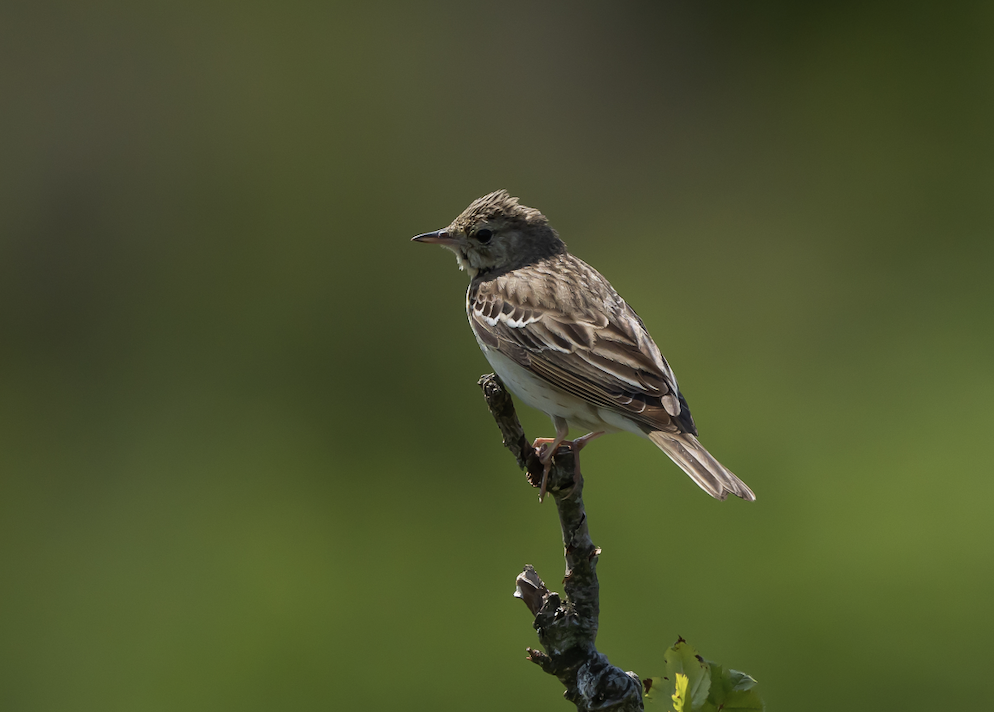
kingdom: Animalia
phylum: Chordata
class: Aves
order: Passeriformes
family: Motacillidae
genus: Anthus
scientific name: Anthus trivialis
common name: Tree pipit
